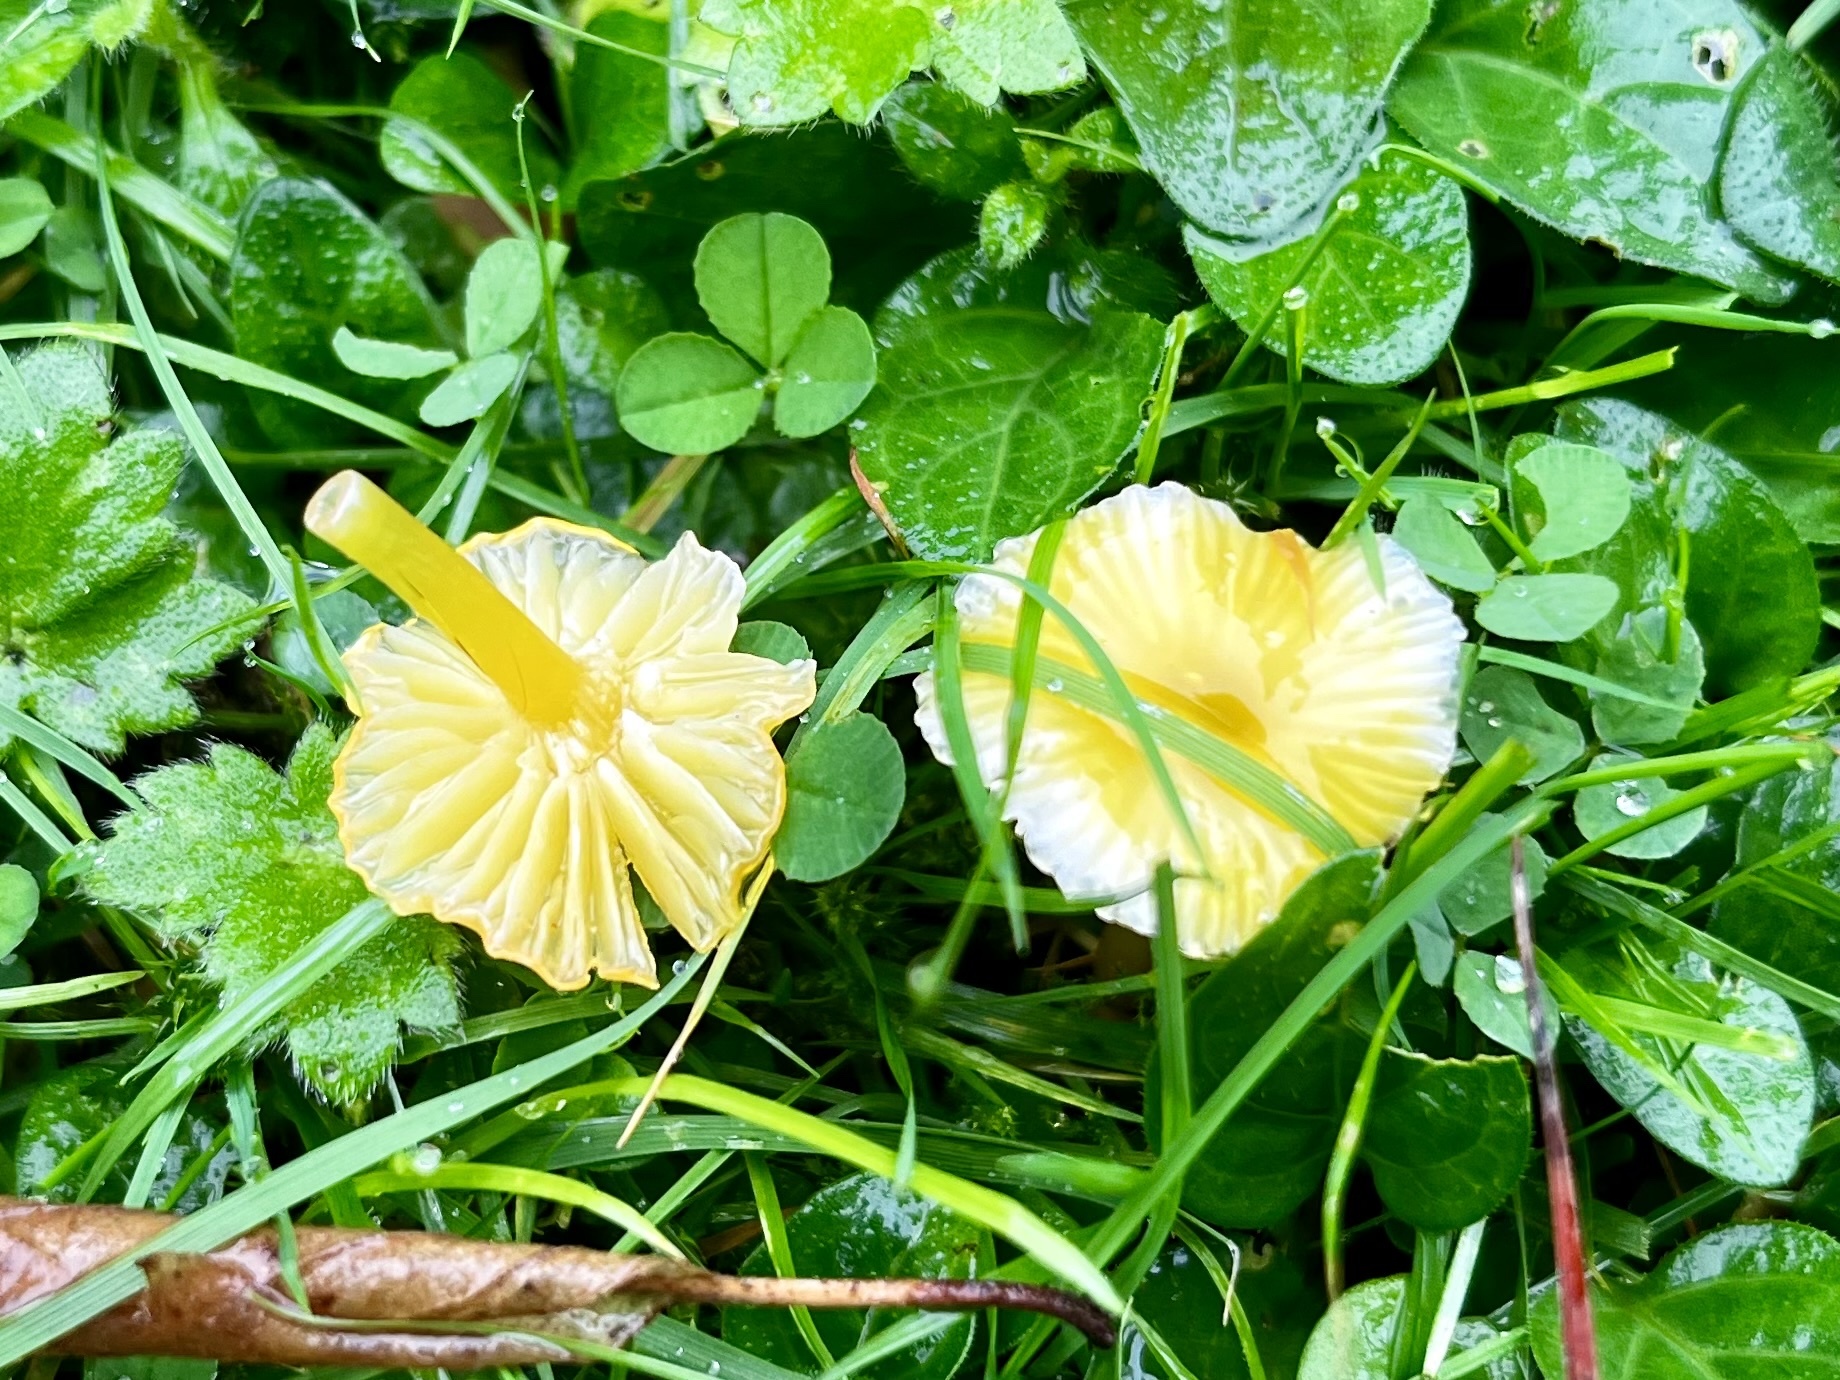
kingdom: Fungi
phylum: Basidiomycota
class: Agaricomycetes
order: Agaricales
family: Hygrophoraceae
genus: Hygrocybe
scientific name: Hygrocybe glutinipes
